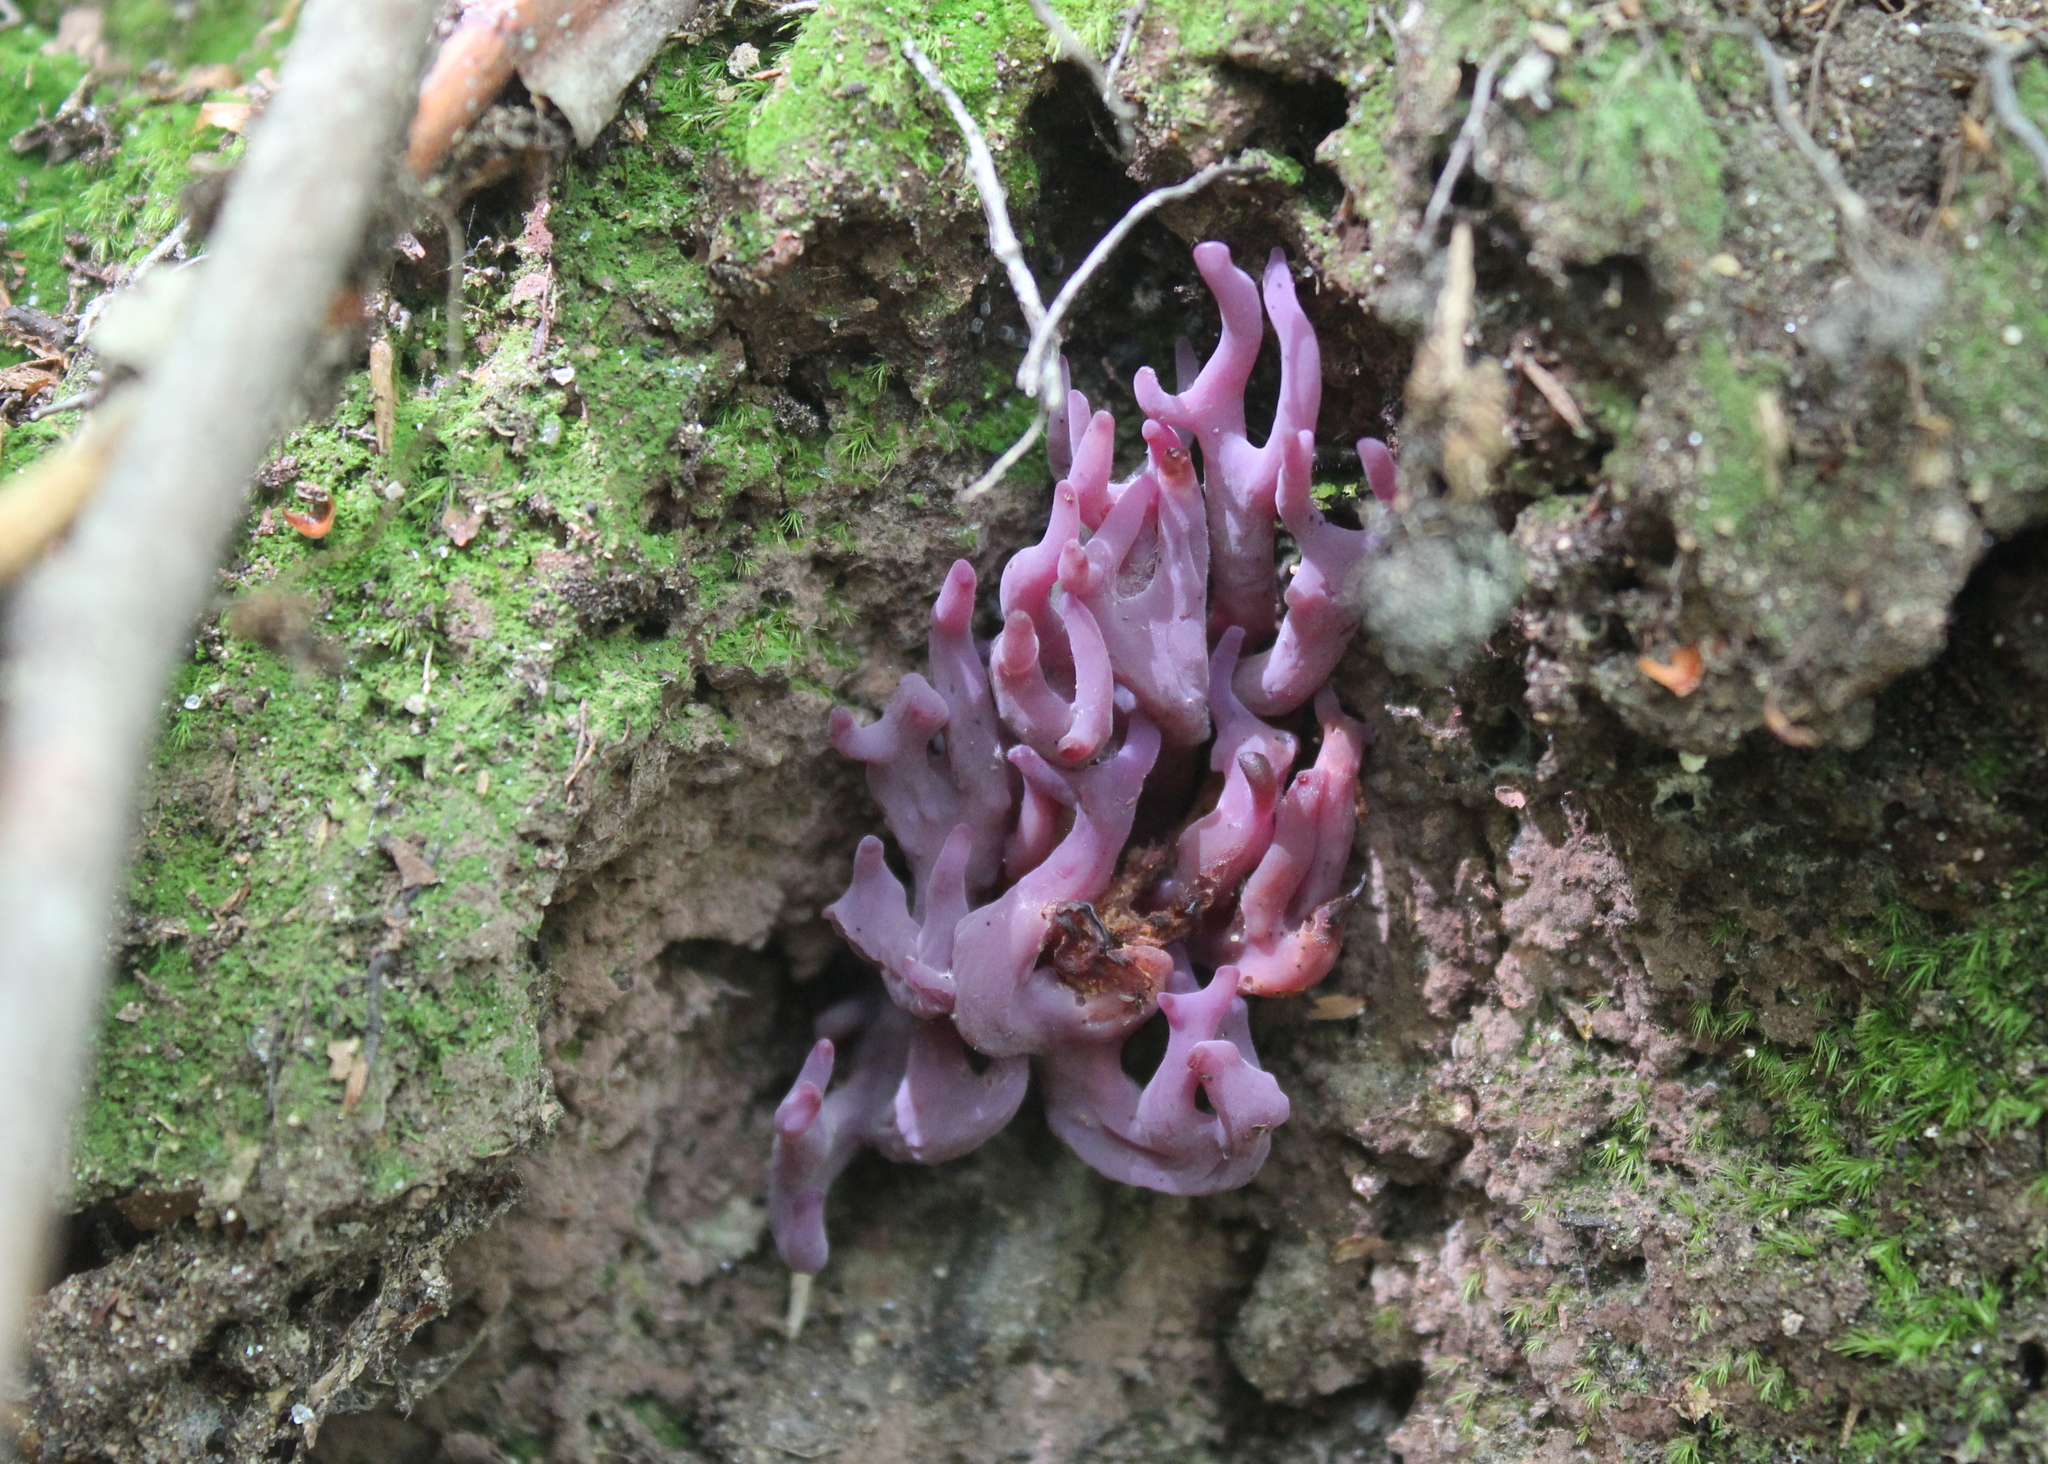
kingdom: Fungi
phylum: Basidiomycota
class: Agaricomycetes
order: Agaricales
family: Clavariaceae
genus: Clavaria
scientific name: Clavaria zollingeri
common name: Violet coral
